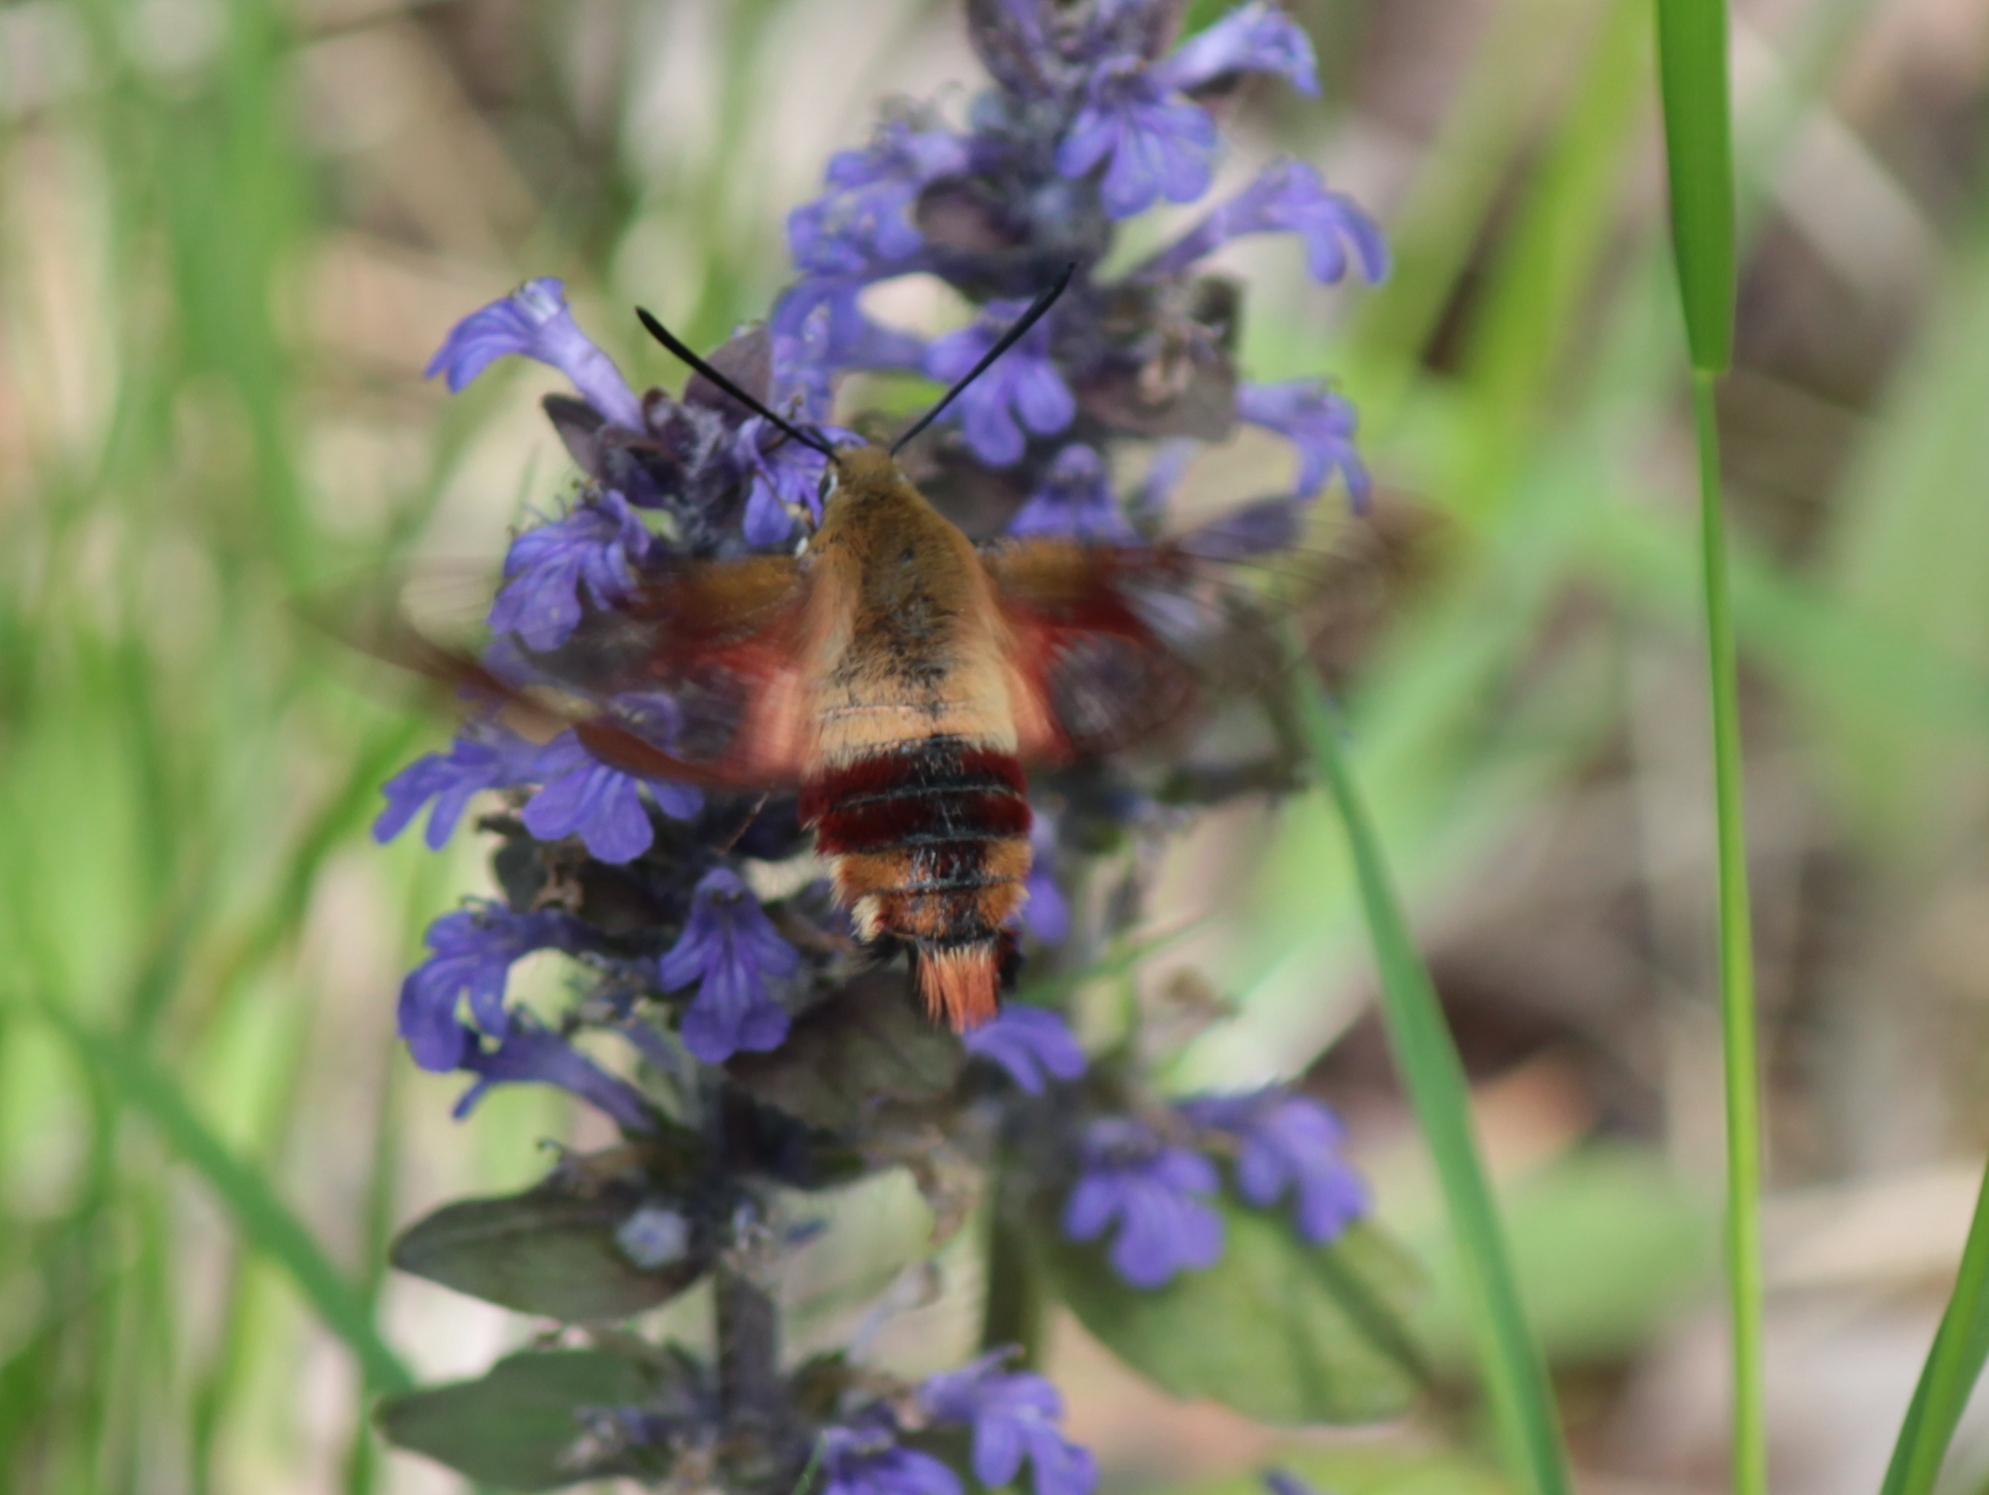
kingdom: Animalia
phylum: Arthropoda
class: Insecta
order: Lepidoptera
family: Sphingidae
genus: Hemaris
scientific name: Hemaris thysbe
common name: Common clear-wing
